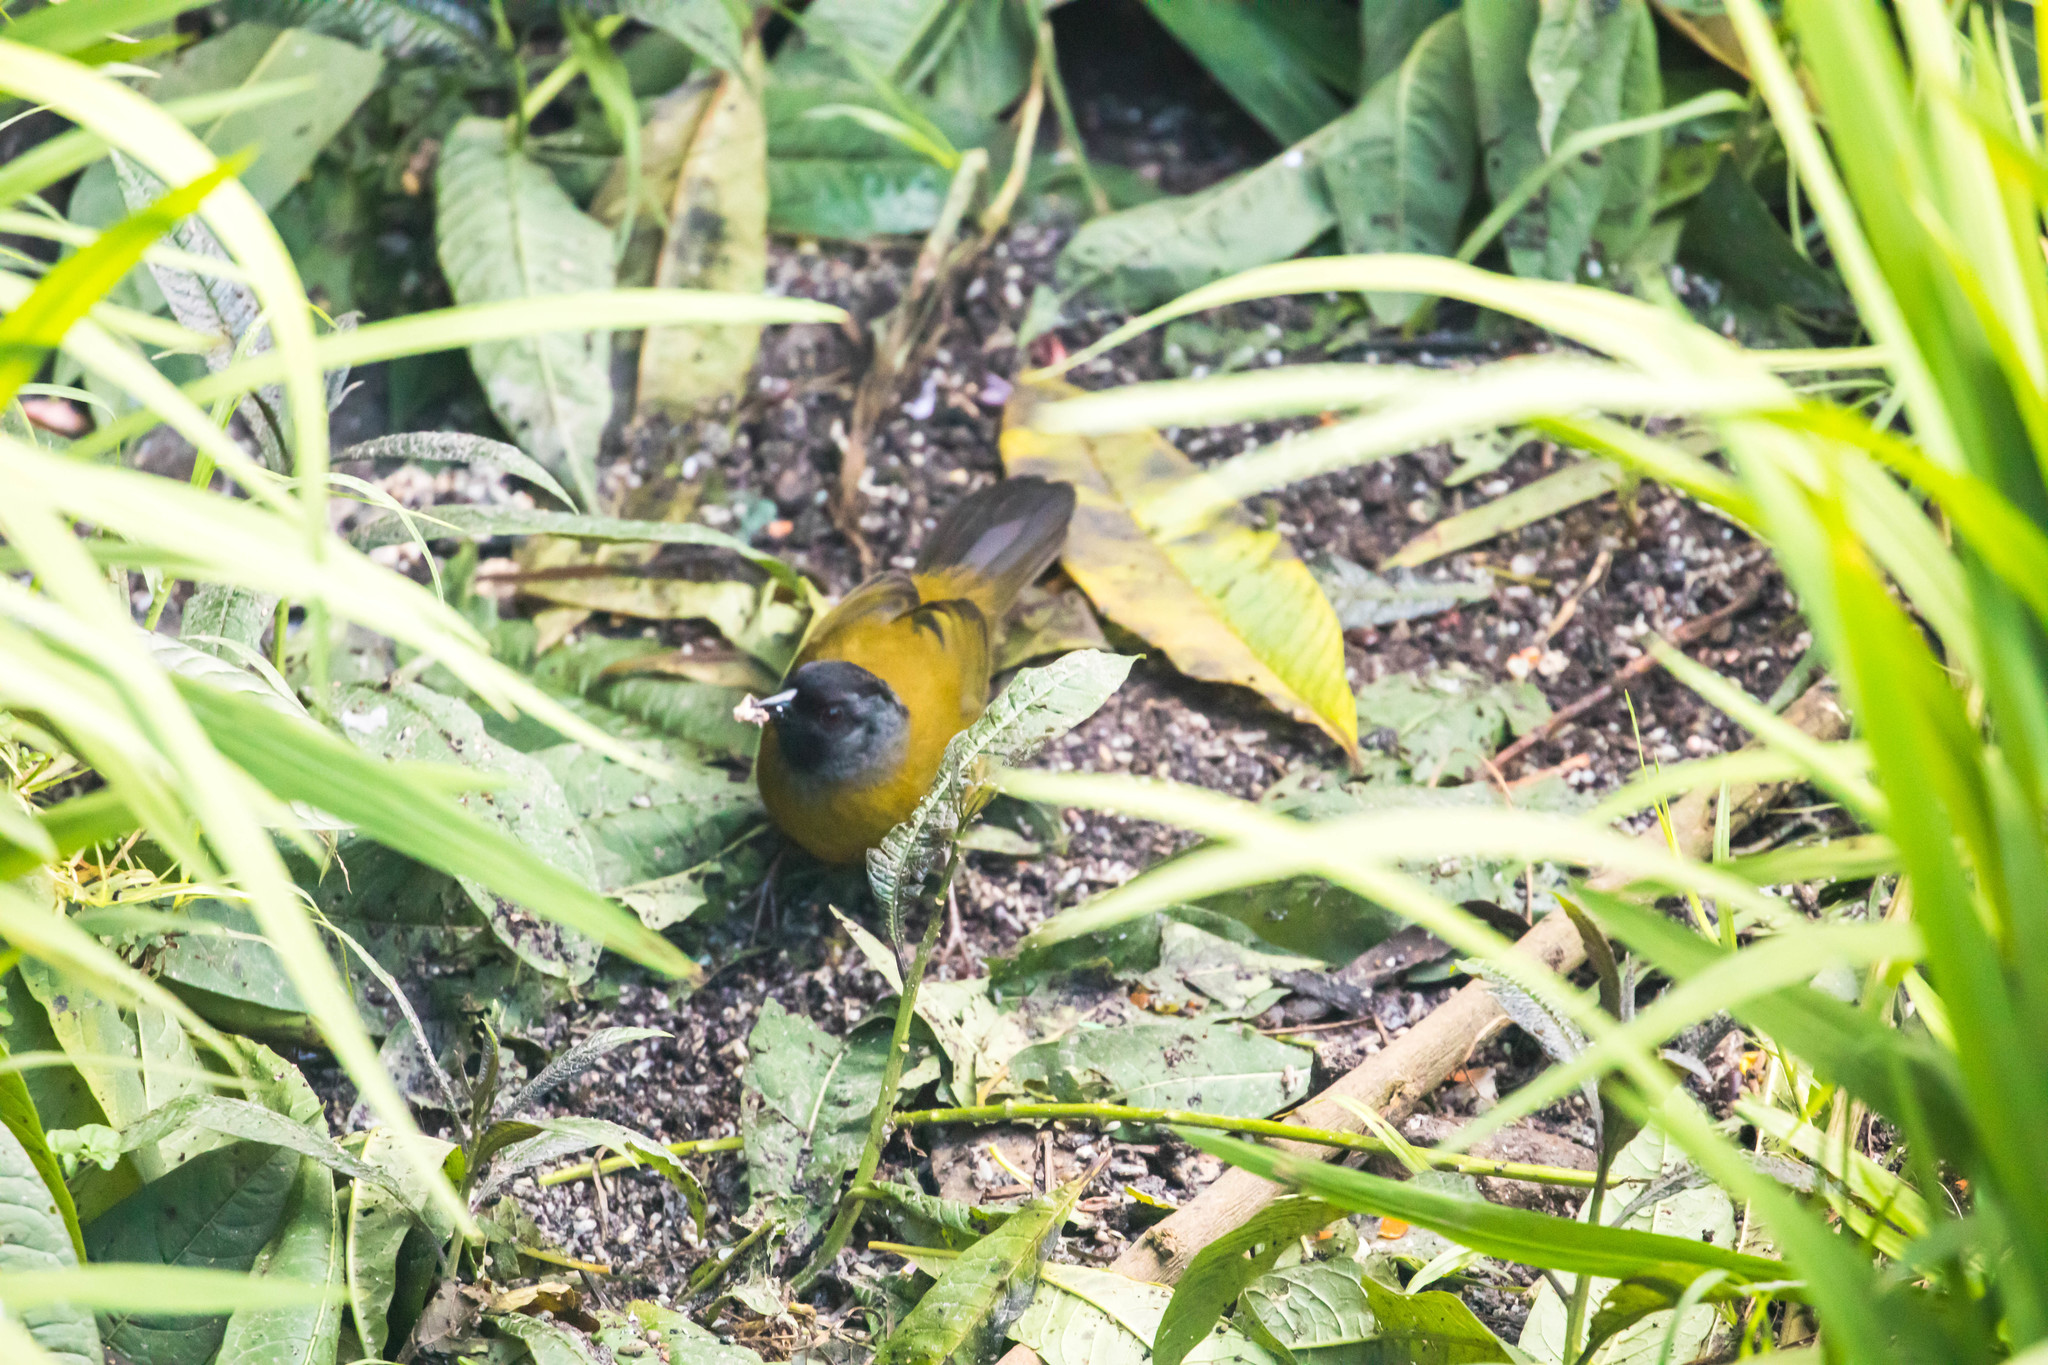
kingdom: Animalia
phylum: Chordata
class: Aves
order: Passeriformes
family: Passerellidae
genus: Pezopetes
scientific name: Pezopetes capitalis
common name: Large-footed finch
